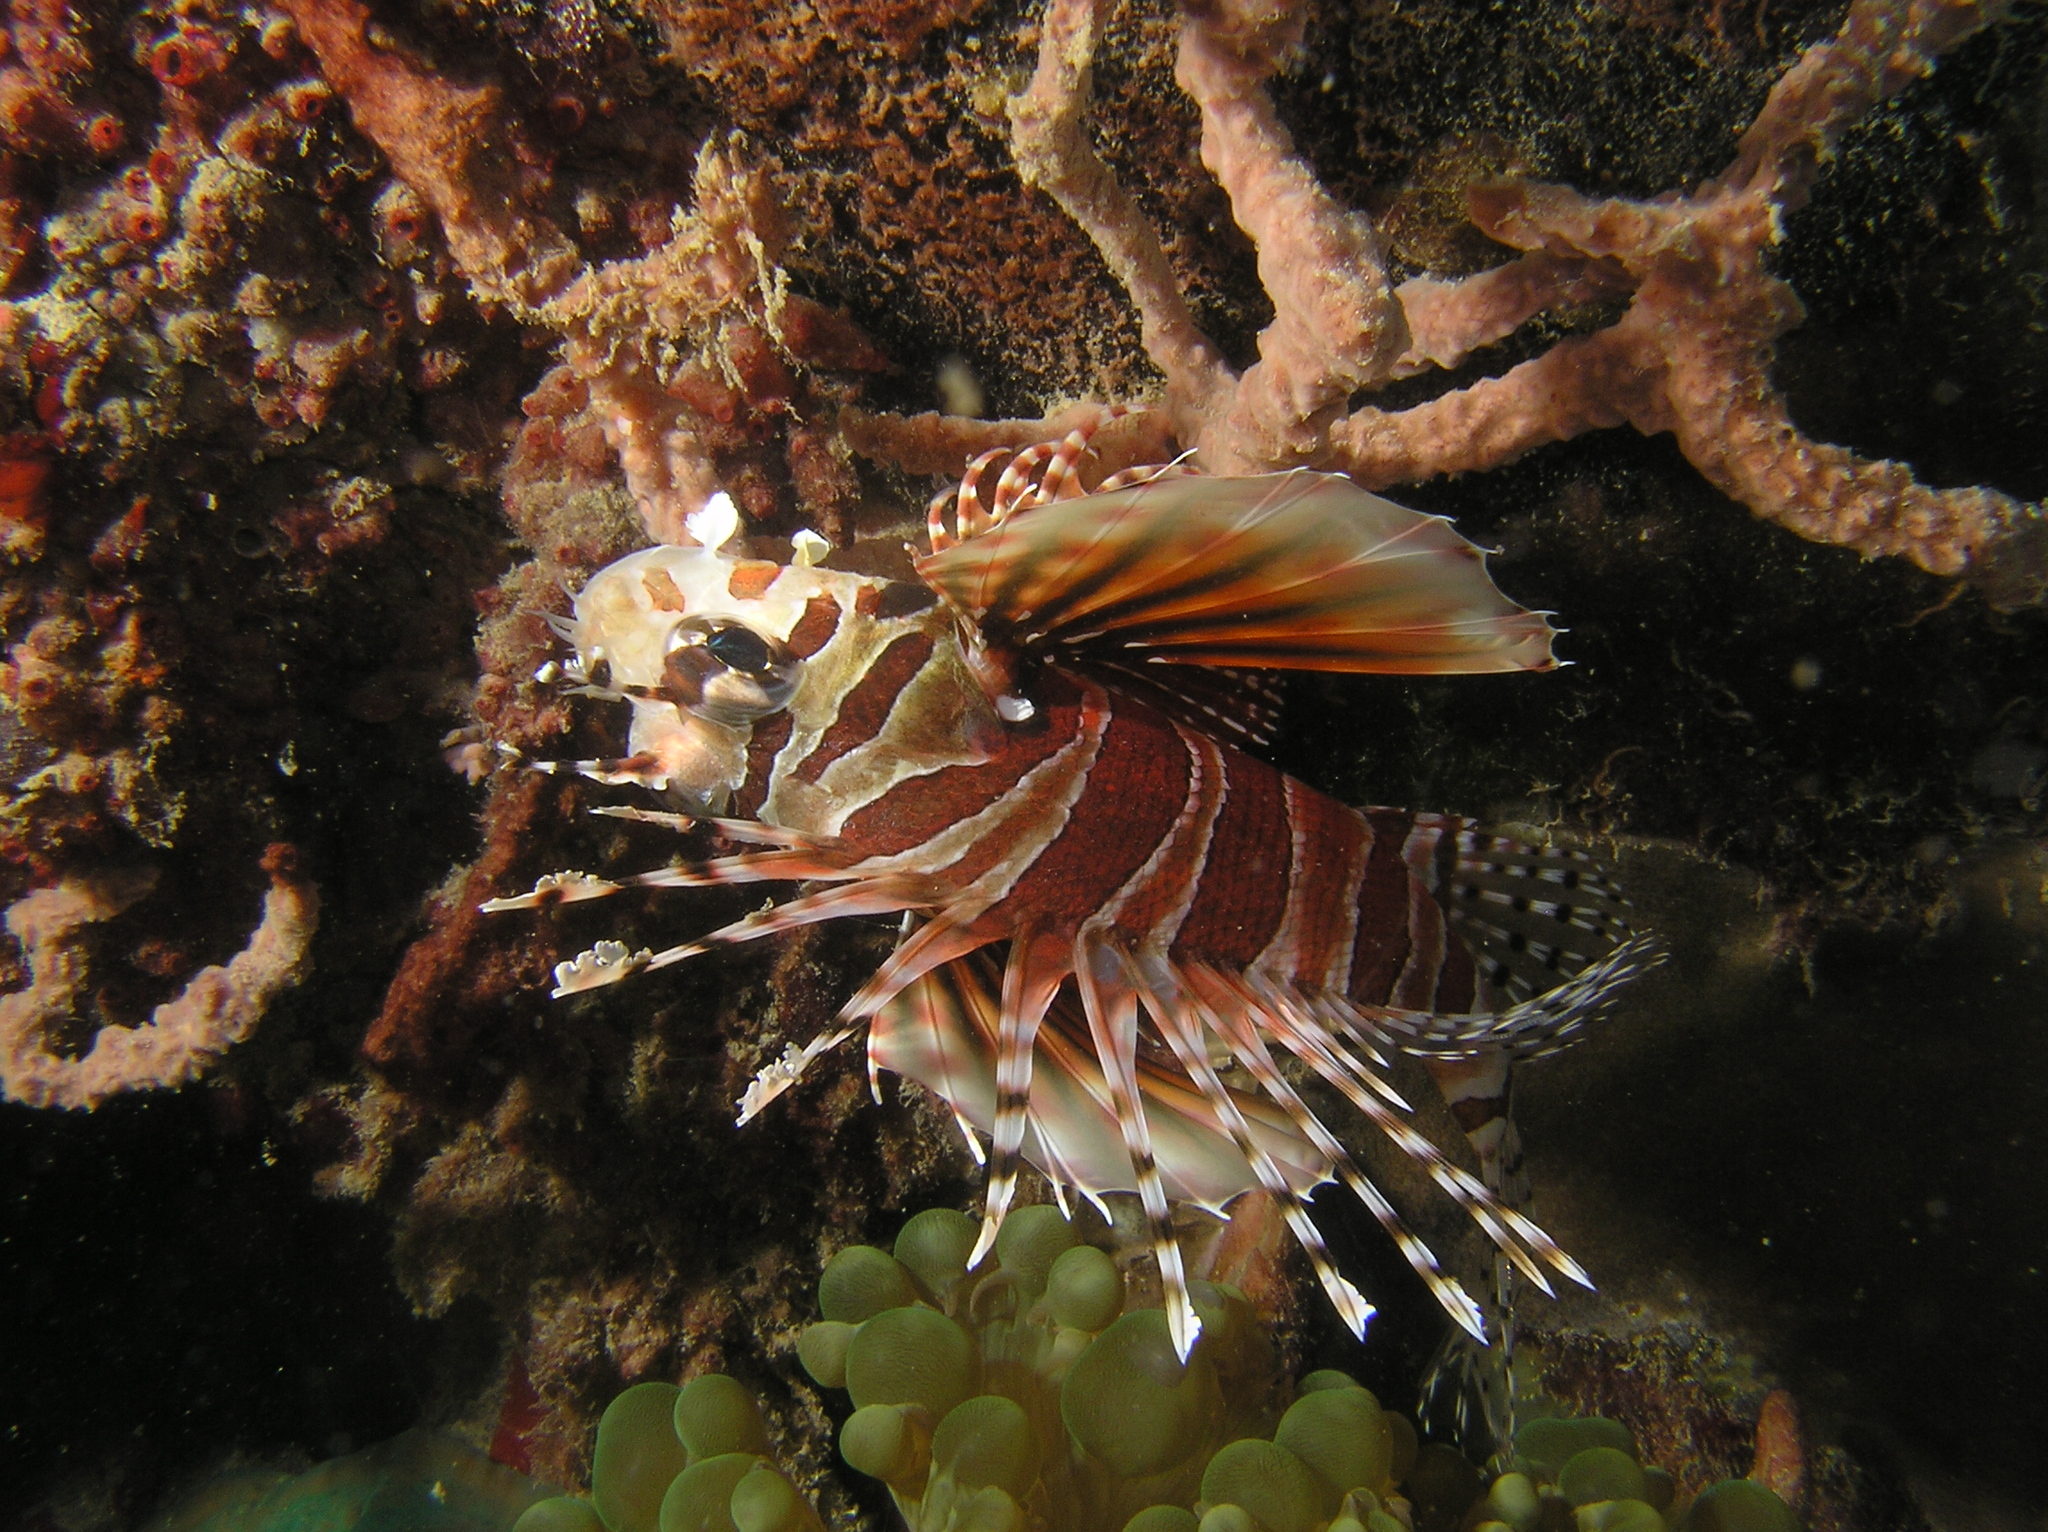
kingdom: Animalia
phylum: Chordata
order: Scorpaeniformes
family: Scorpaenidae
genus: Dendrochirus
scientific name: Dendrochirus zebra
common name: Zebra lionfish
